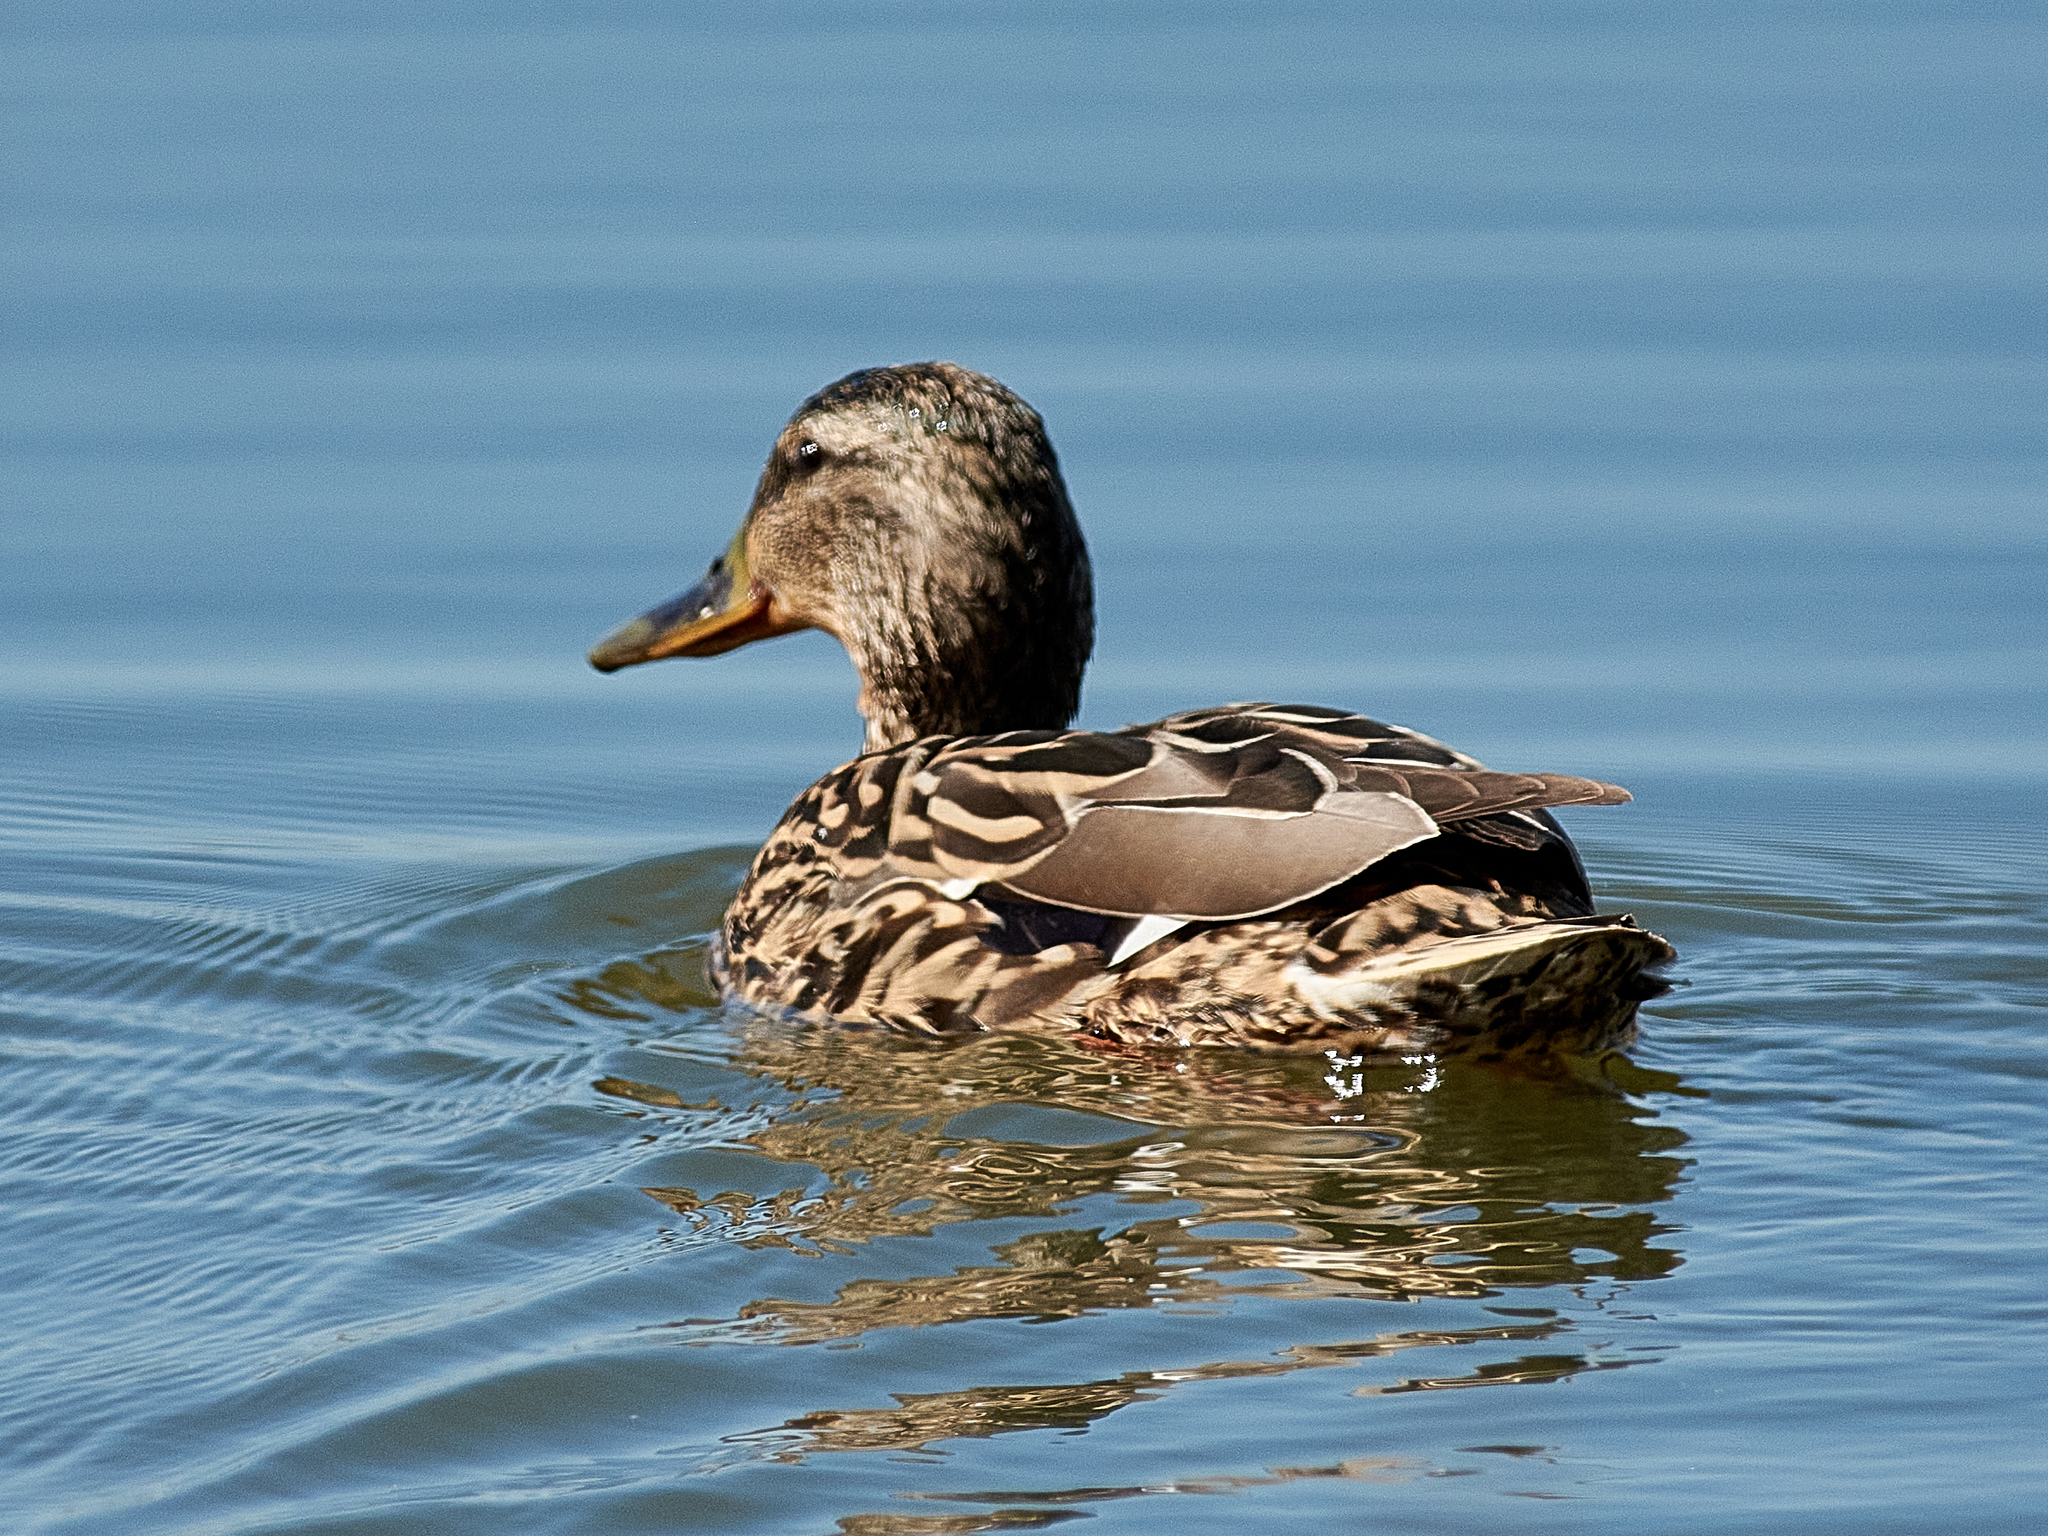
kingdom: Animalia
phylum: Chordata
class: Aves
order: Anseriformes
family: Anatidae
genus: Anas
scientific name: Anas platyrhynchos
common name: Mallard
